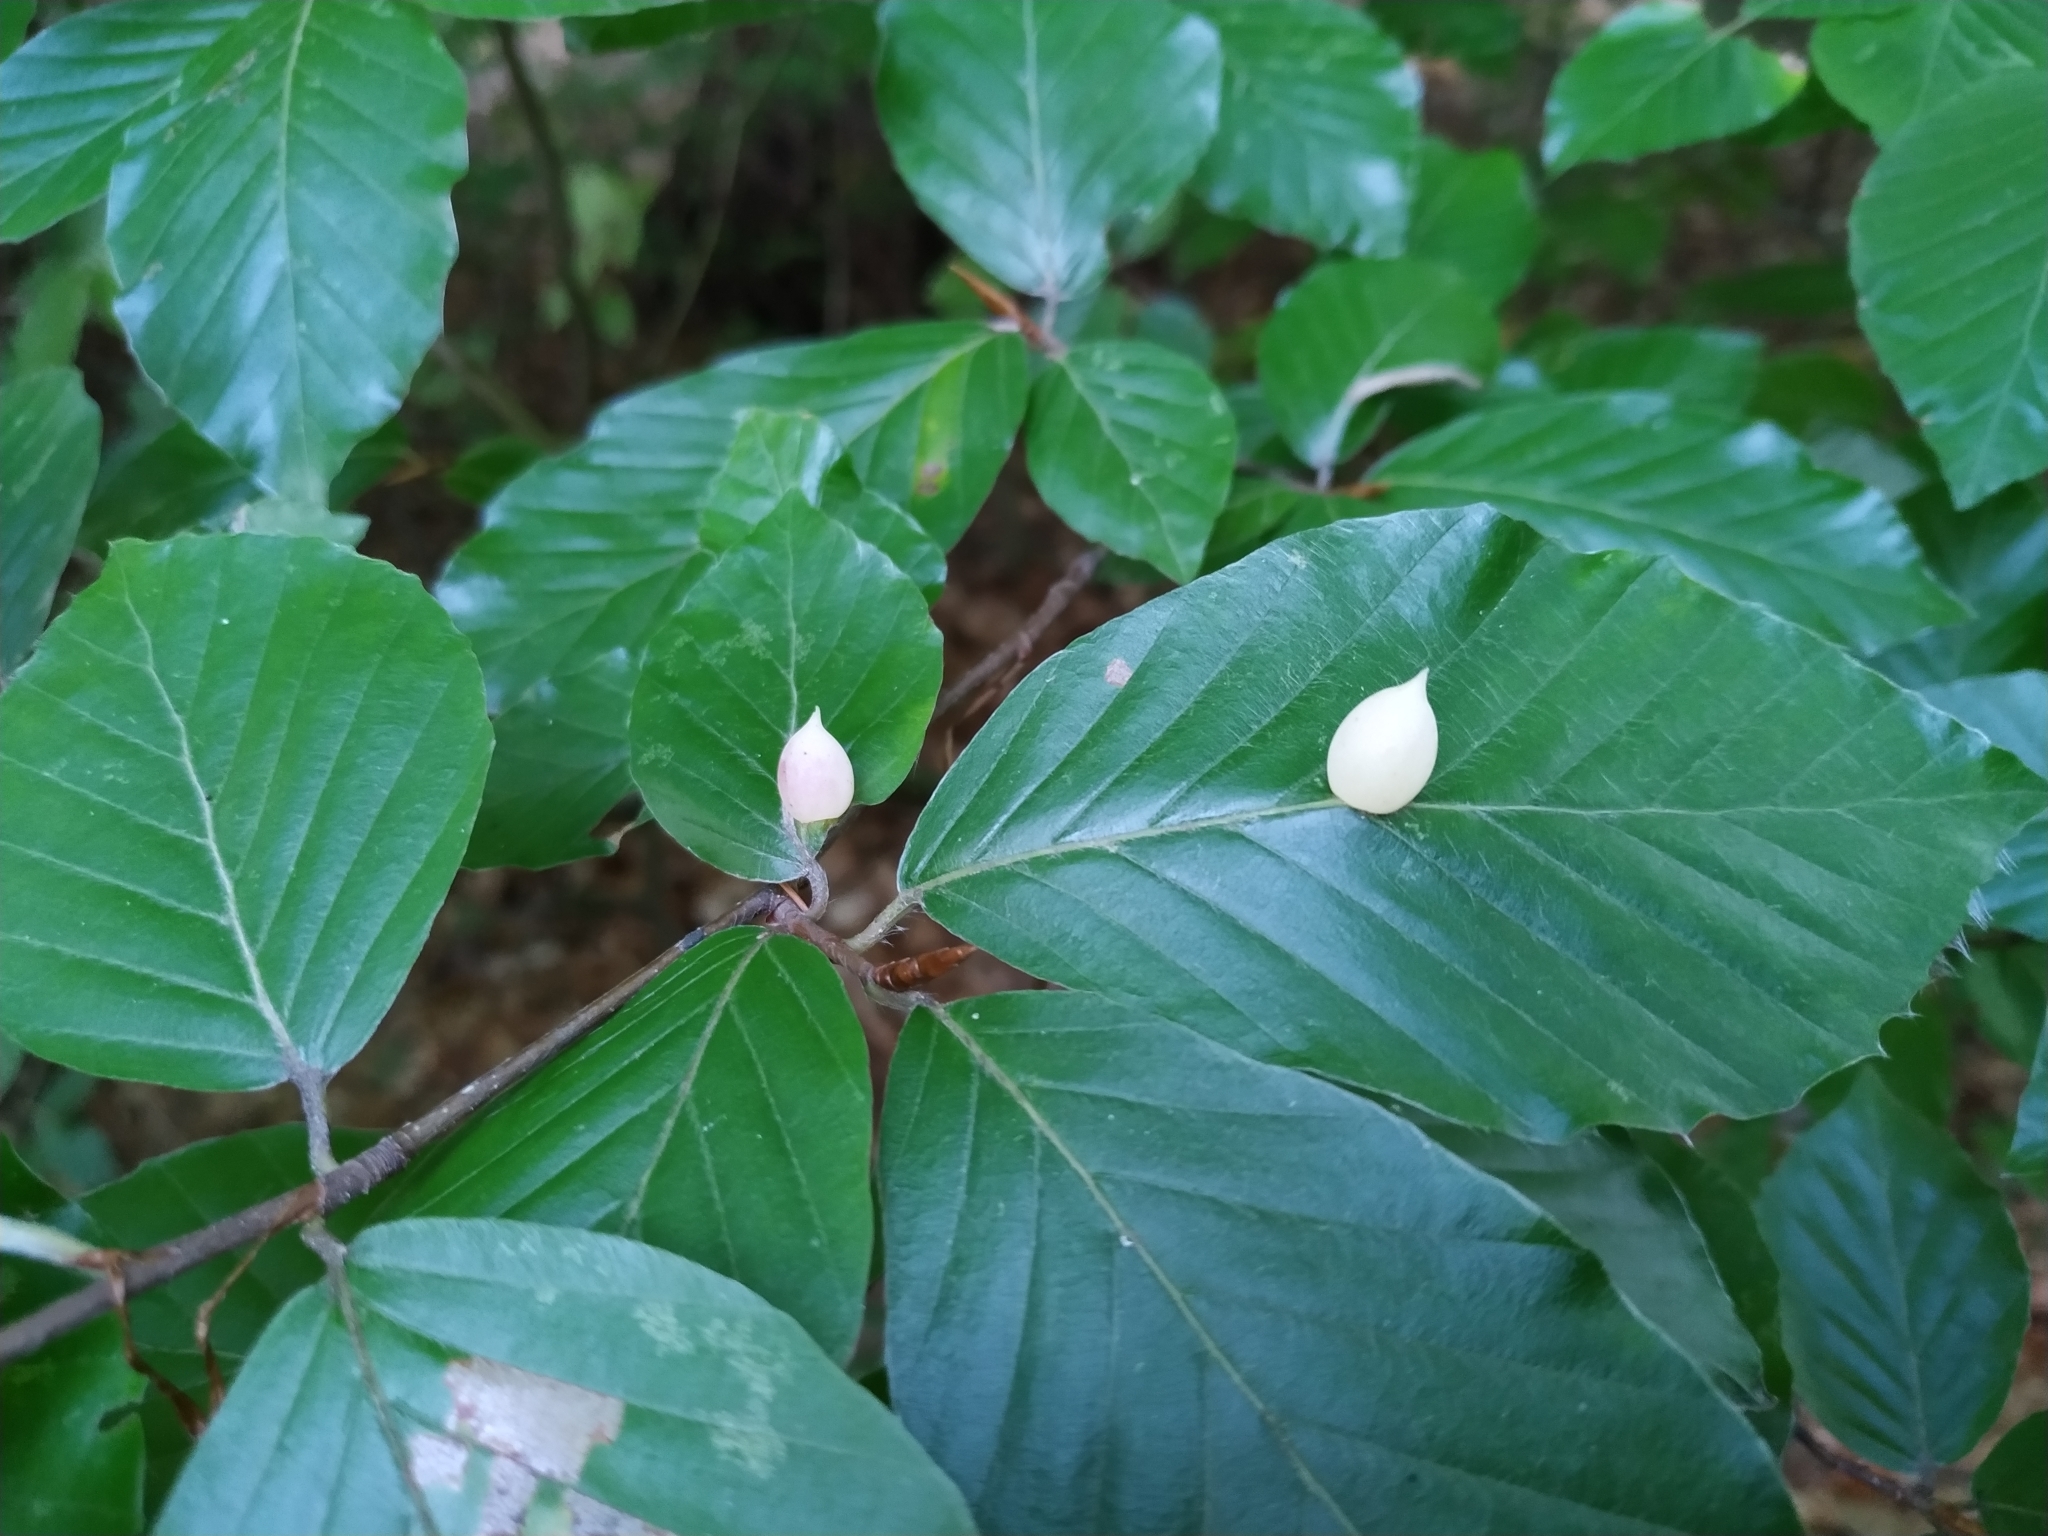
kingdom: Animalia
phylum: Arthropoda
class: Insecta
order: Diptera
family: Cecidomyiidae
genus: Mikiola
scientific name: Mikiola fagi
